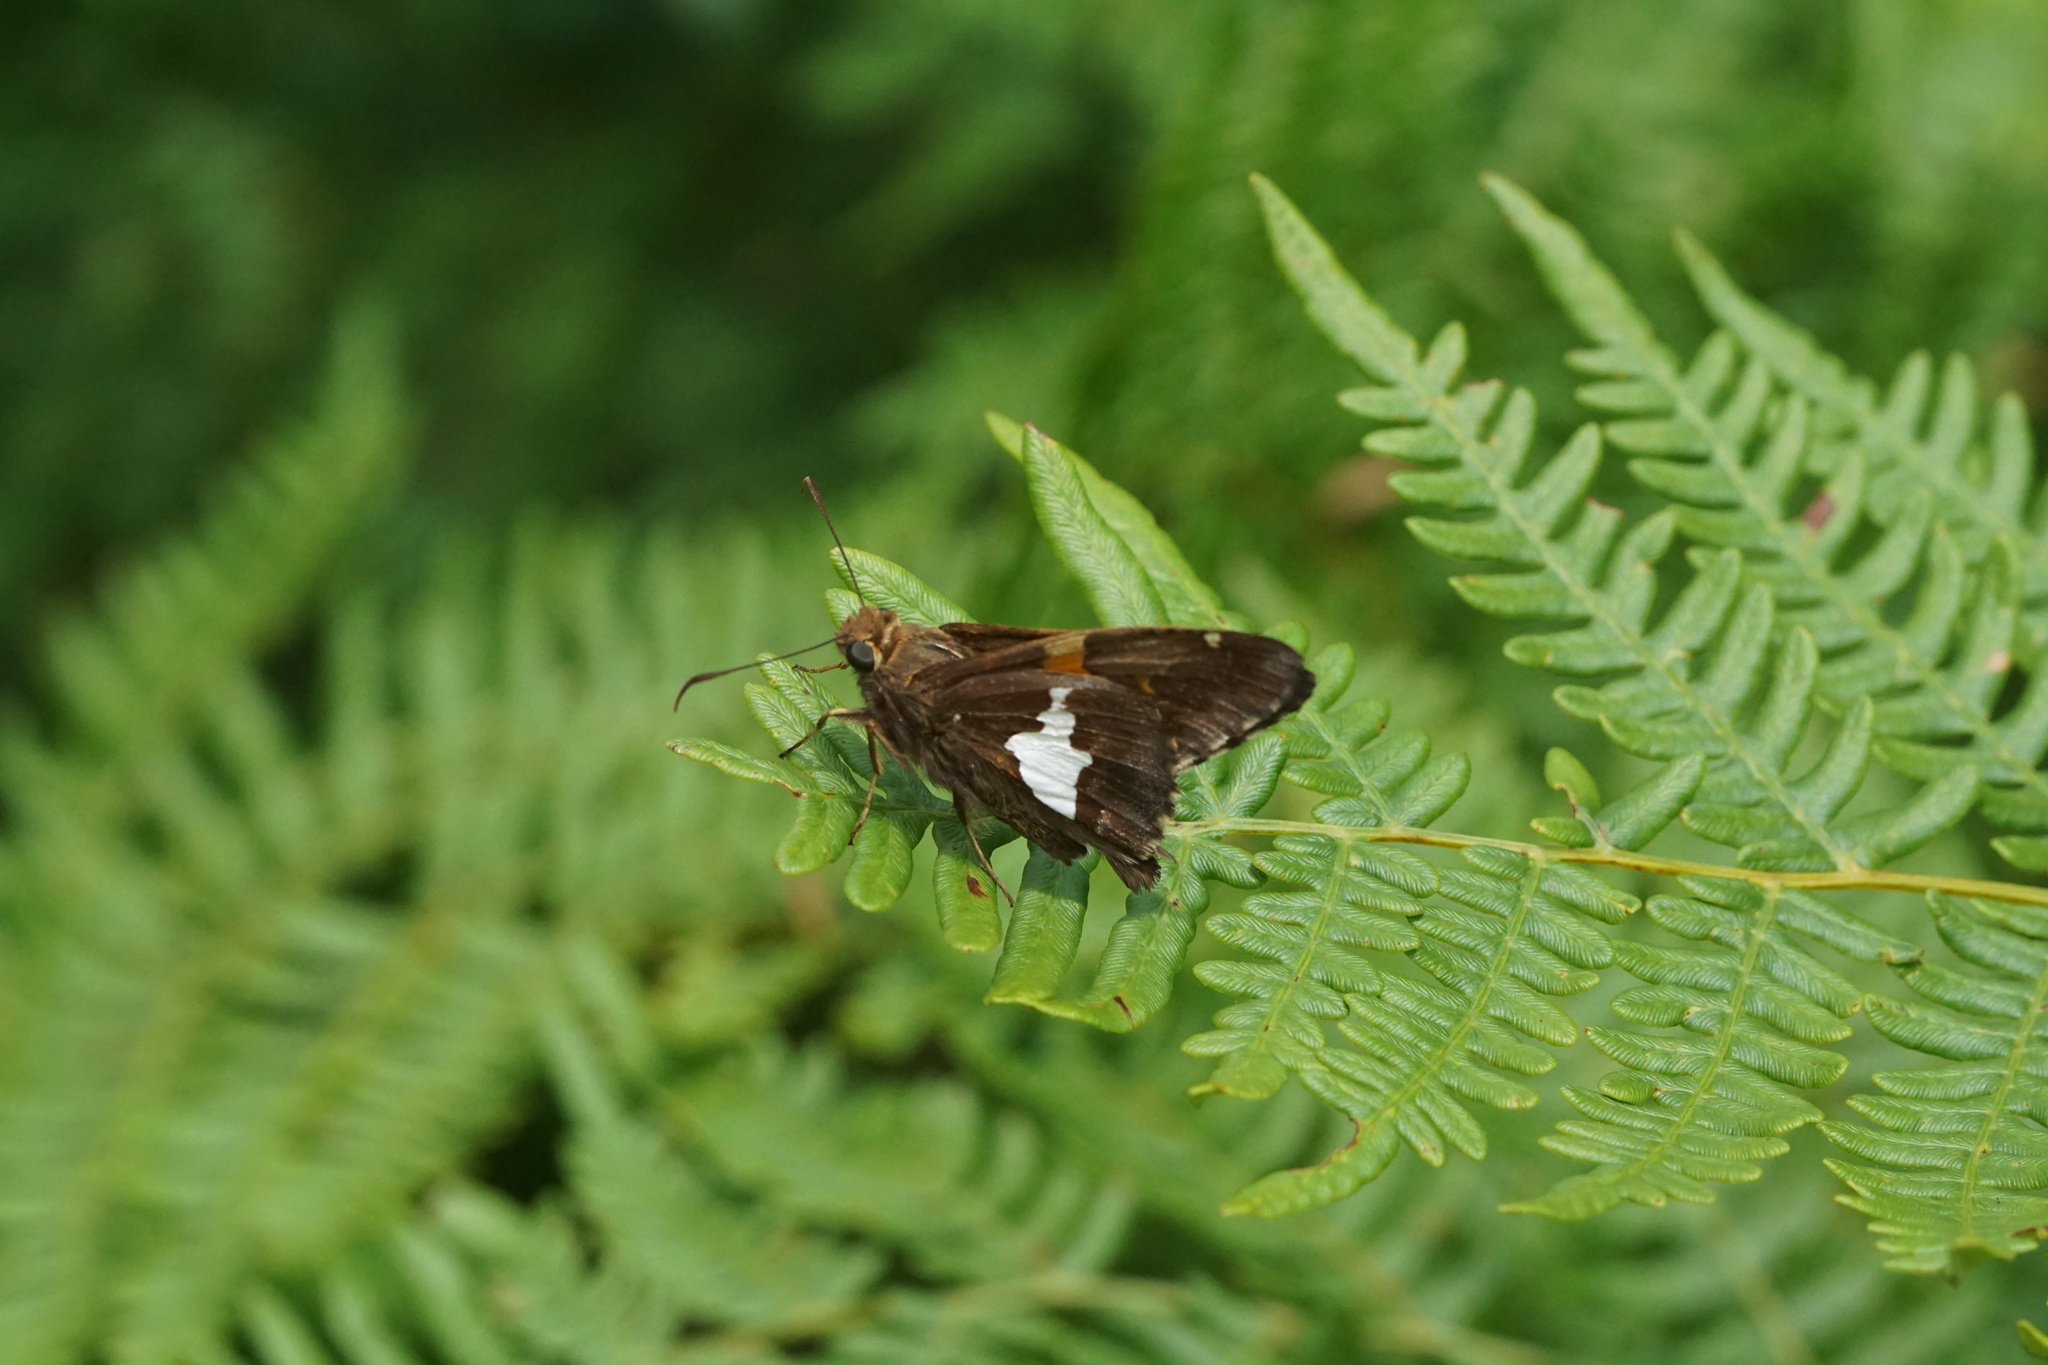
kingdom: Animalia
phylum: Arthropoda
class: Insecta
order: Lepidoptera
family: Hesperiidae
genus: Epargyreus
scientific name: Epargyreus clarus
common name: Silver-spotted skipper
